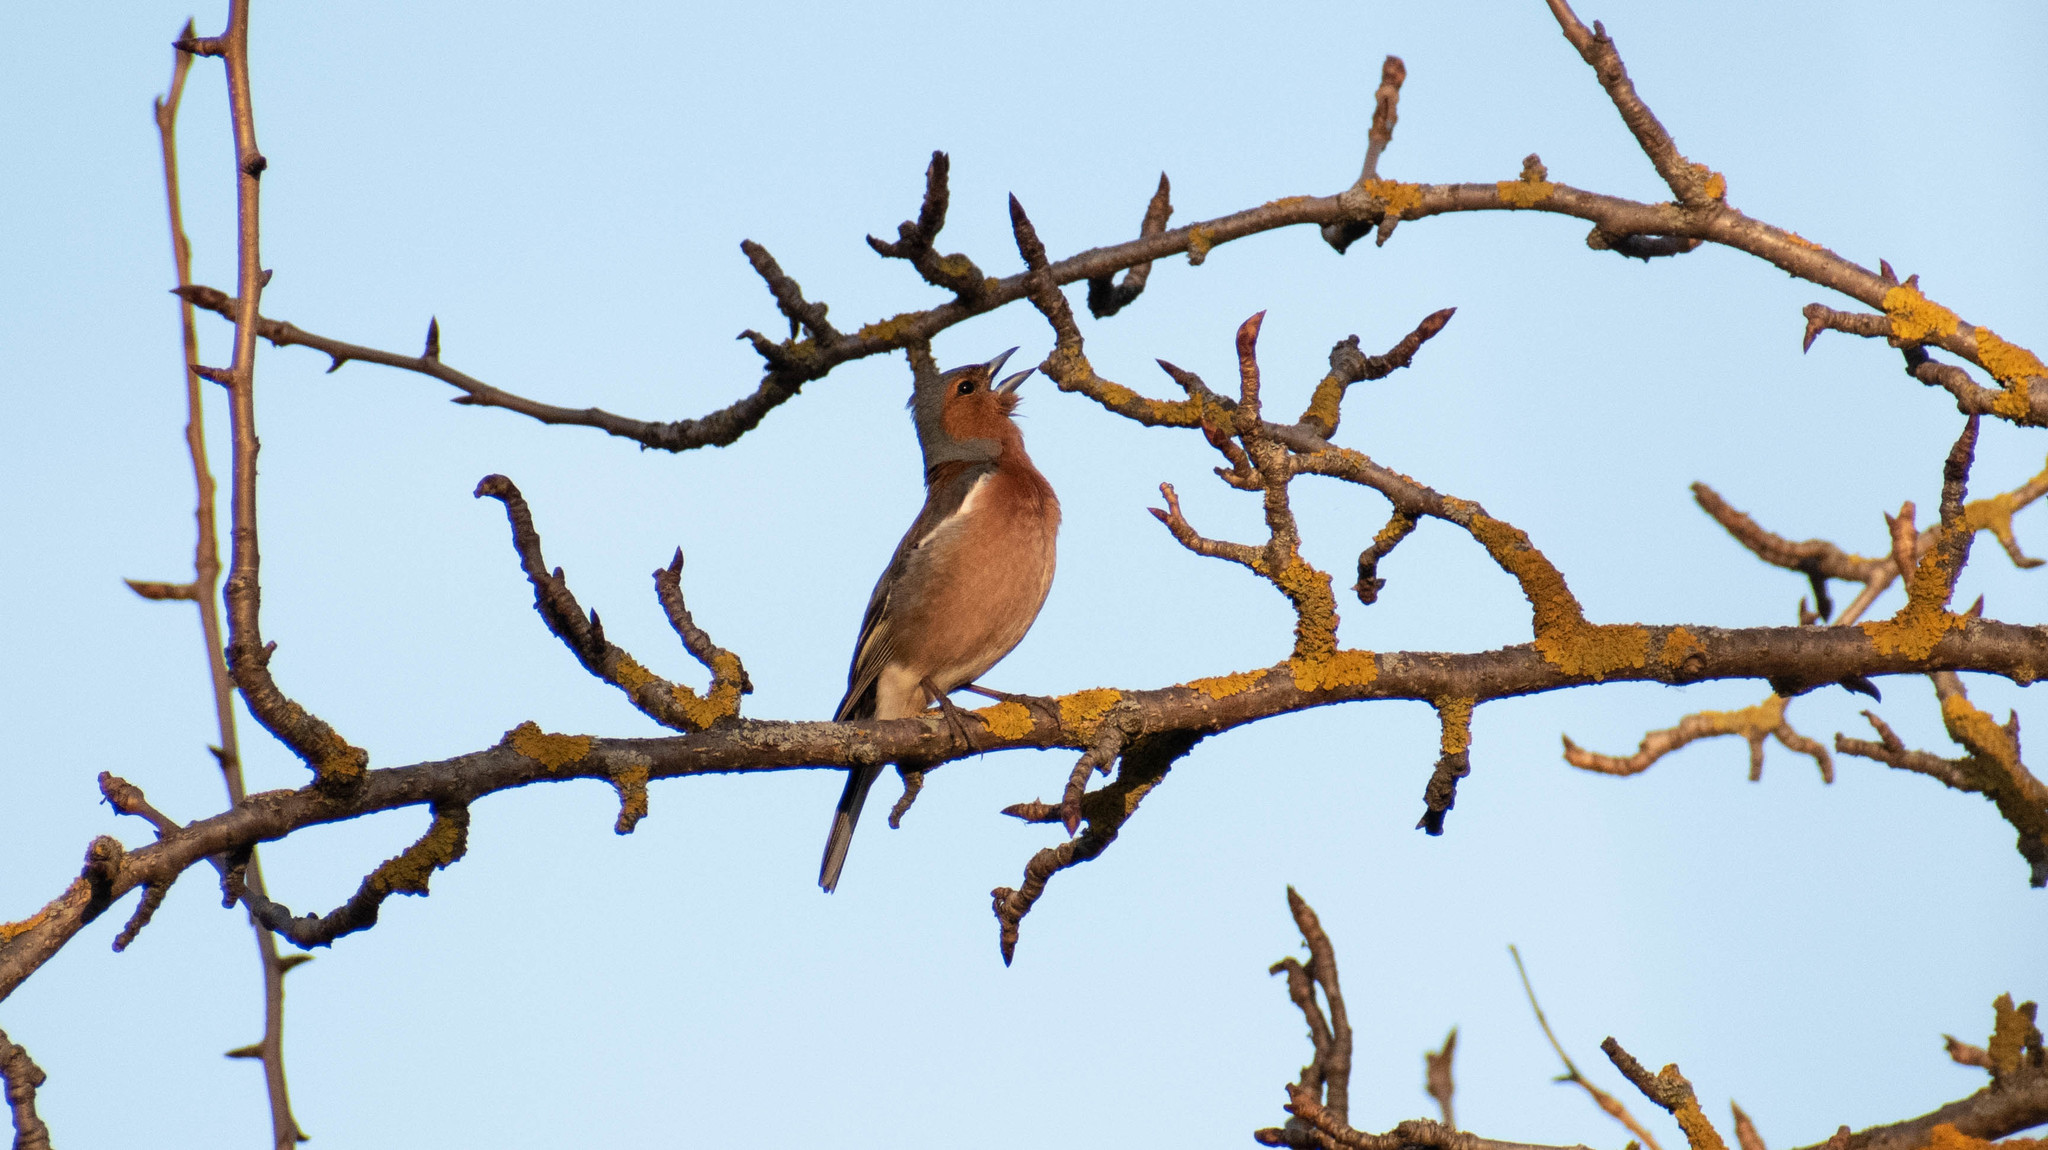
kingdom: Animalia
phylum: Chordata
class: Aves
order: Passeriformes
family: Fringillidae
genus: Fringilla
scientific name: Fringilla coelebs
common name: Common chaffinch
